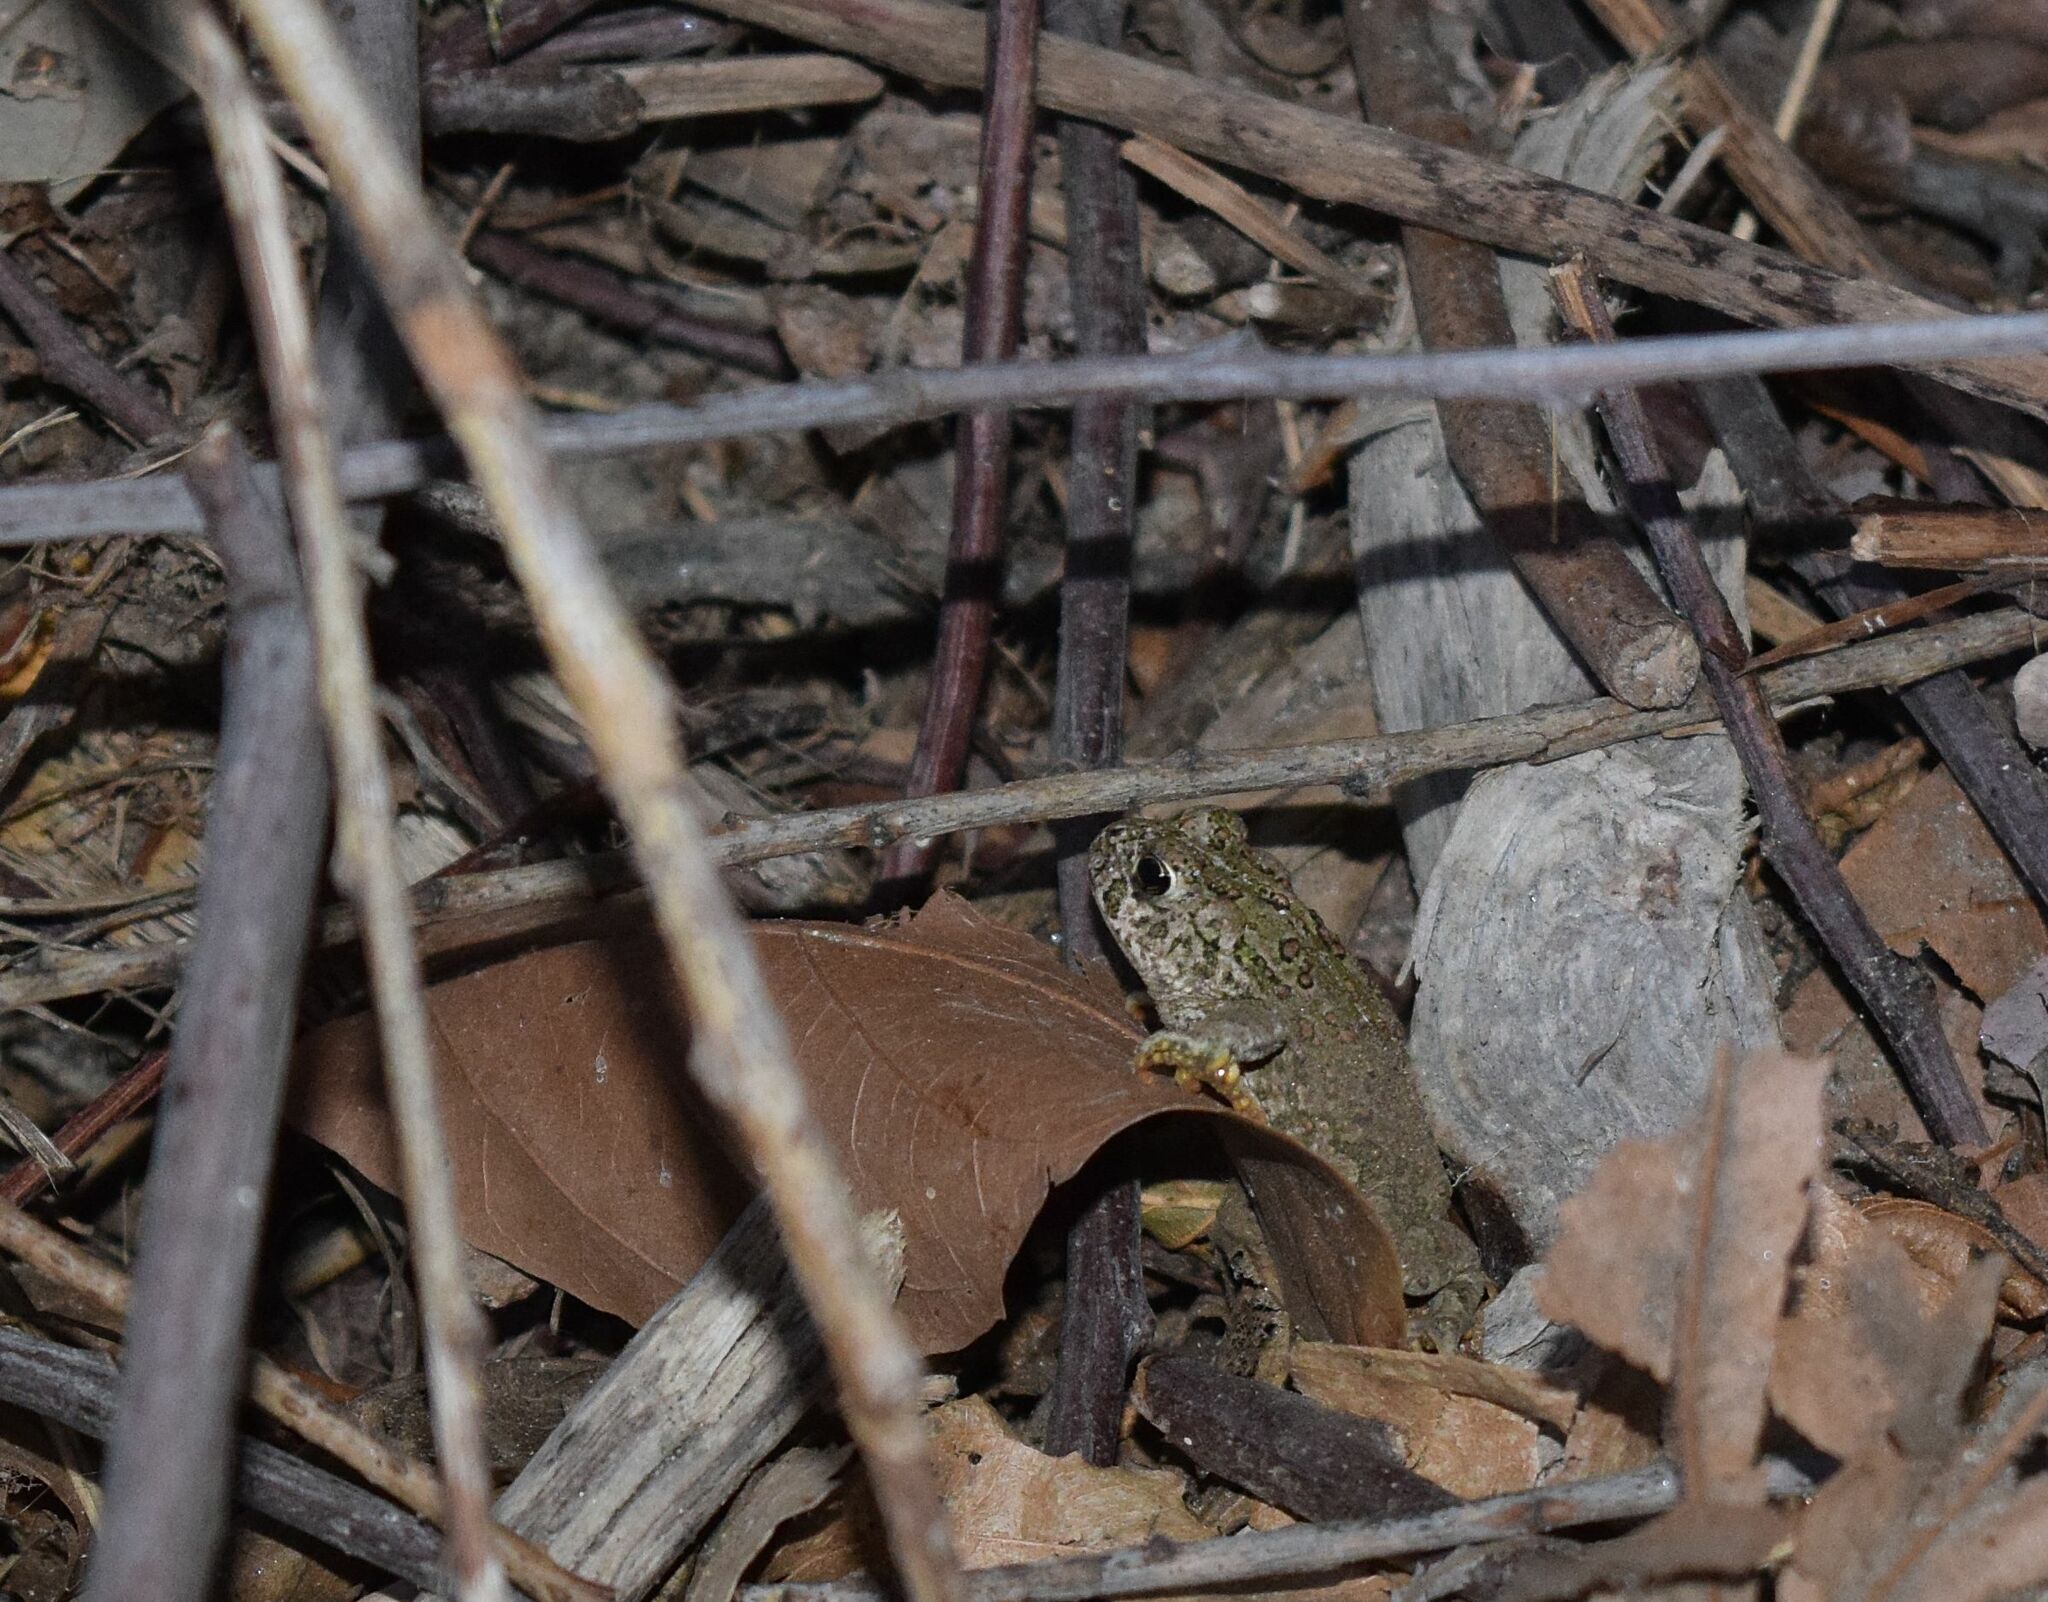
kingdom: Animalia
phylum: Chordata
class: Amphibia
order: Anura
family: Bufonidae
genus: Anaxyrus
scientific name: Anaxyrus boreas
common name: Western toad
